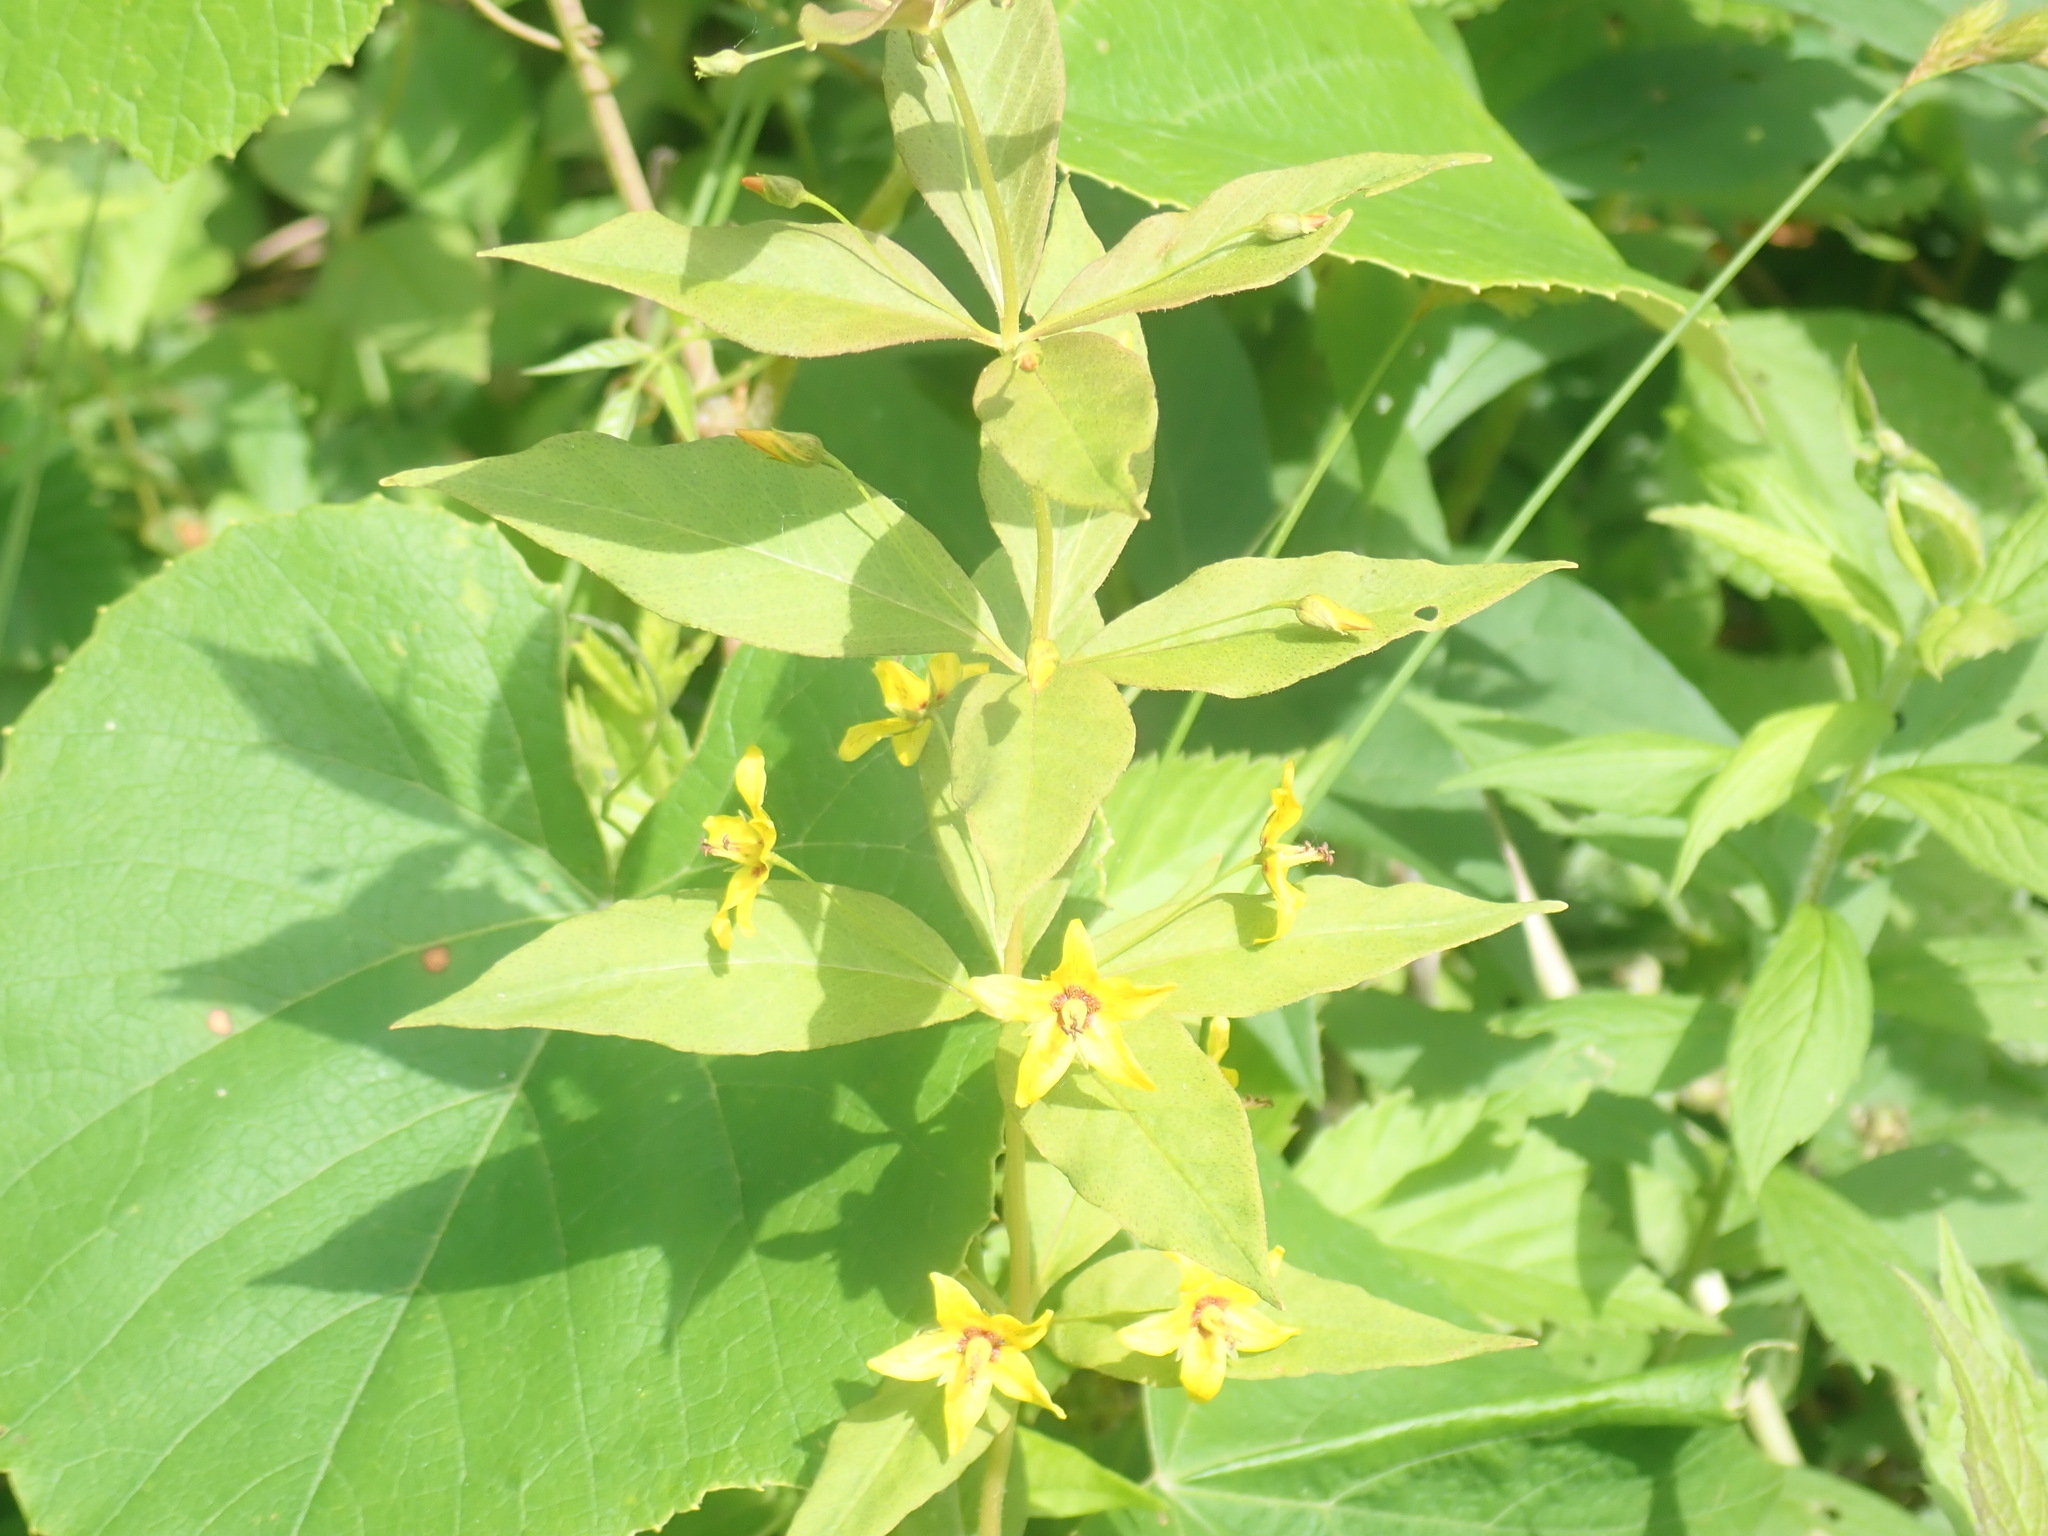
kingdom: Plantae
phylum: Tracheophyta
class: Magnoliopsida
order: Ericales
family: Primulaceae
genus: Lysimachia
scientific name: Lysimachia quadrifolia
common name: Whorled loosestrife
